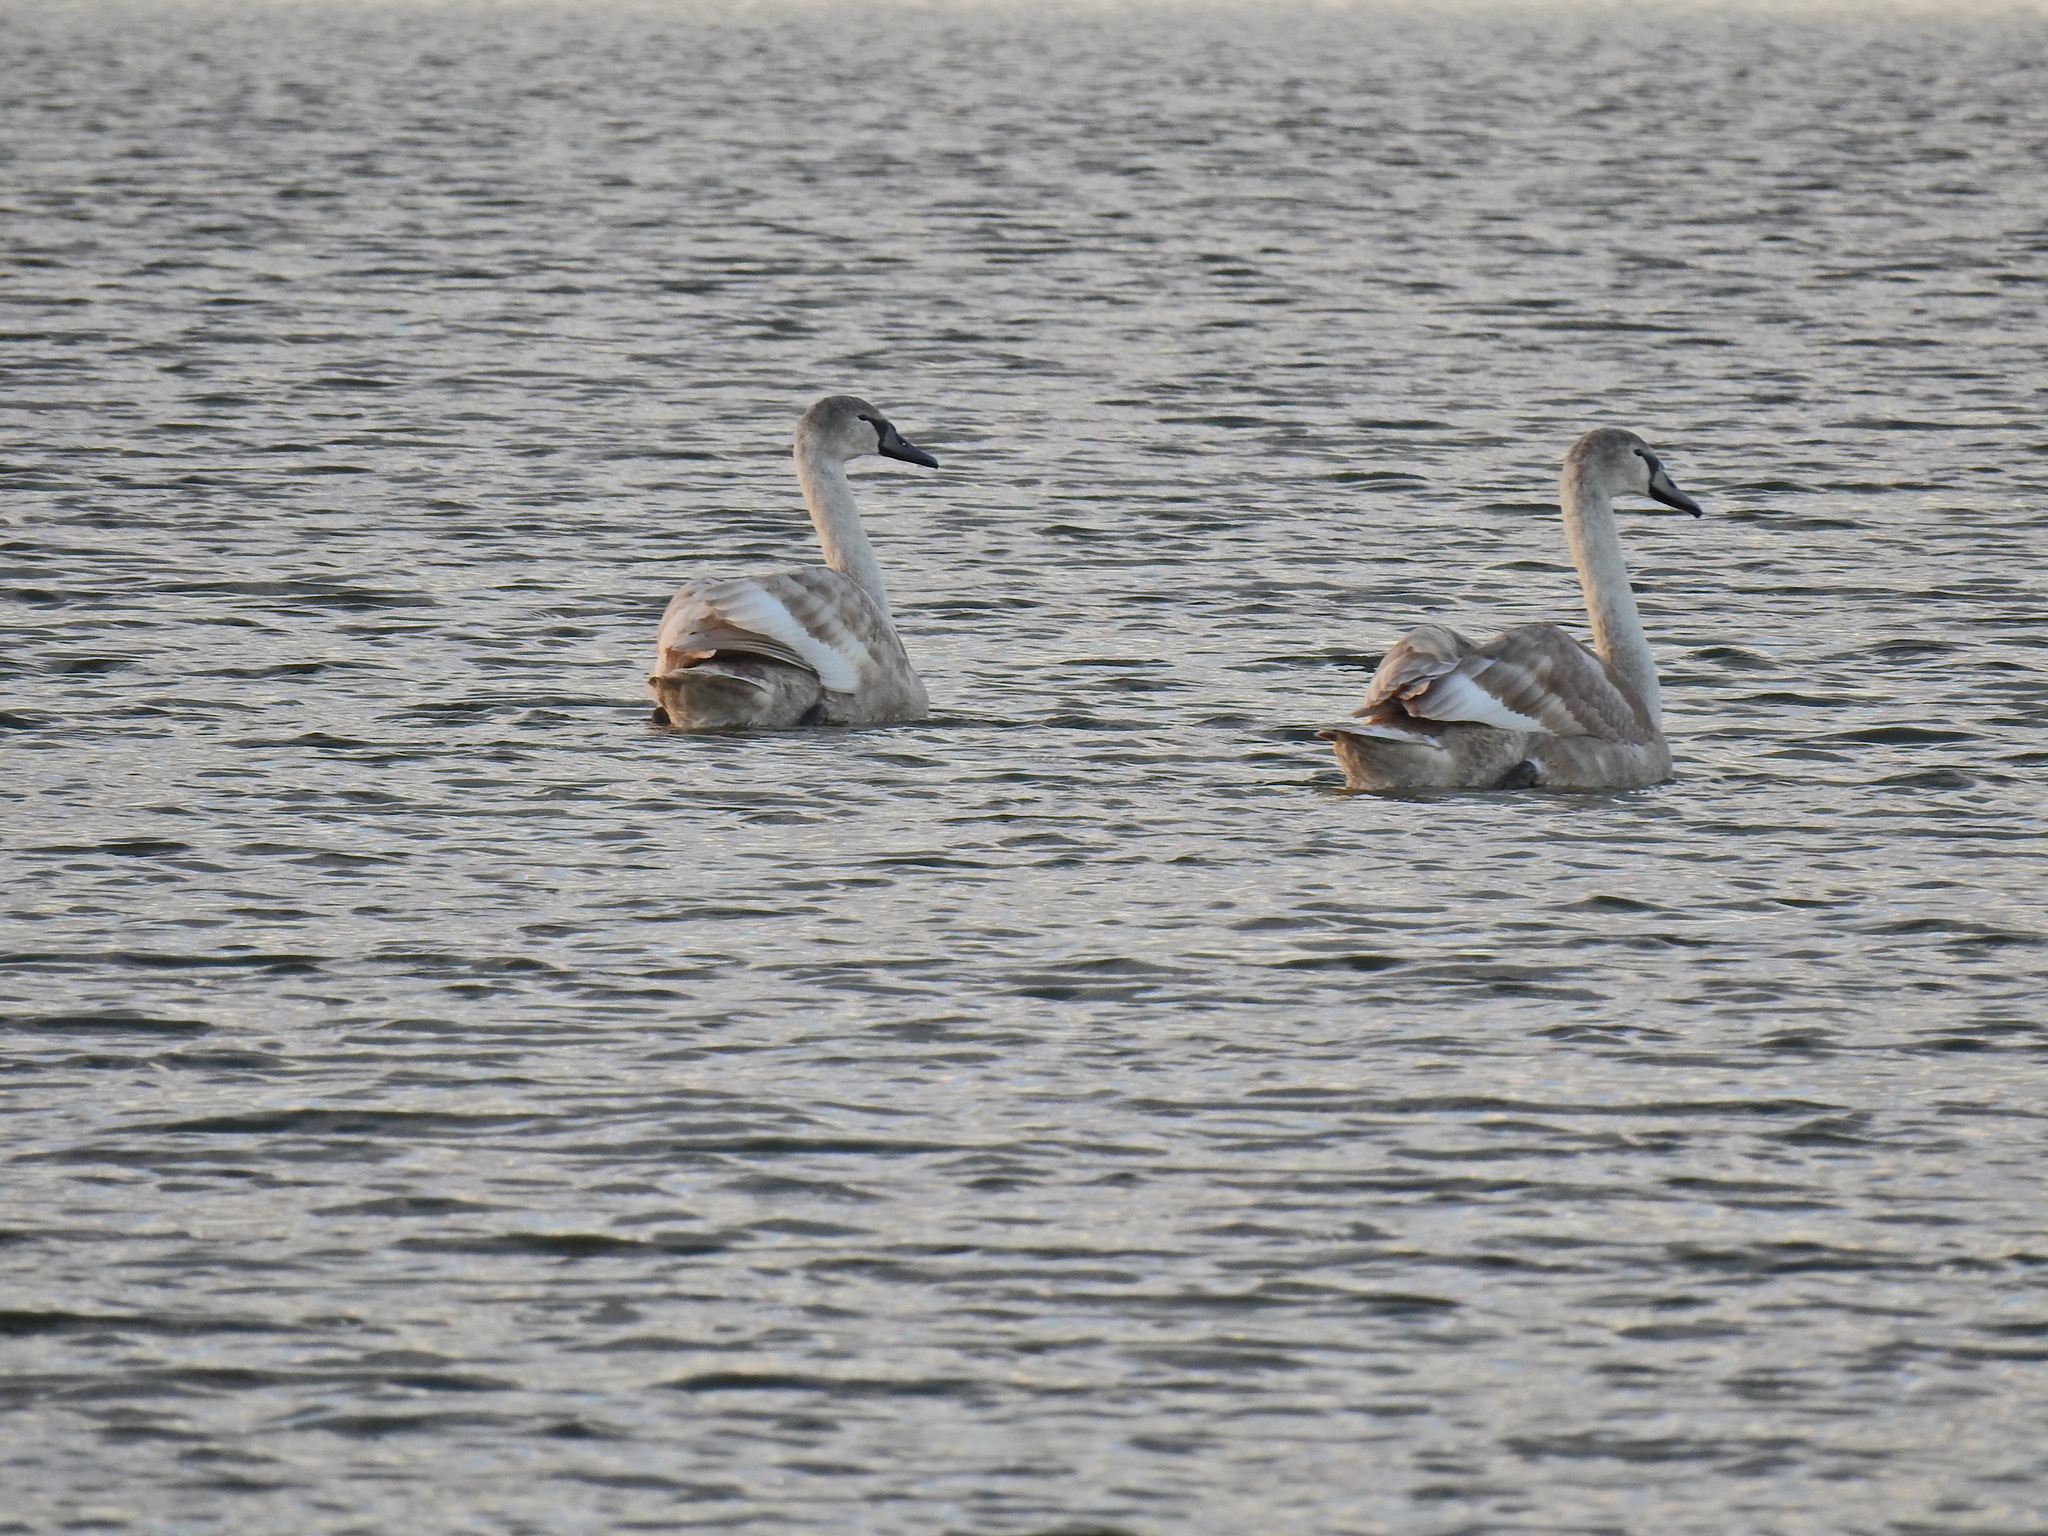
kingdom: Animalia
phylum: Chordata
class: Aves
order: Anseriformes
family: Anatidae
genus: Cygnus
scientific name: Cygnus olor
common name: Mute swan
